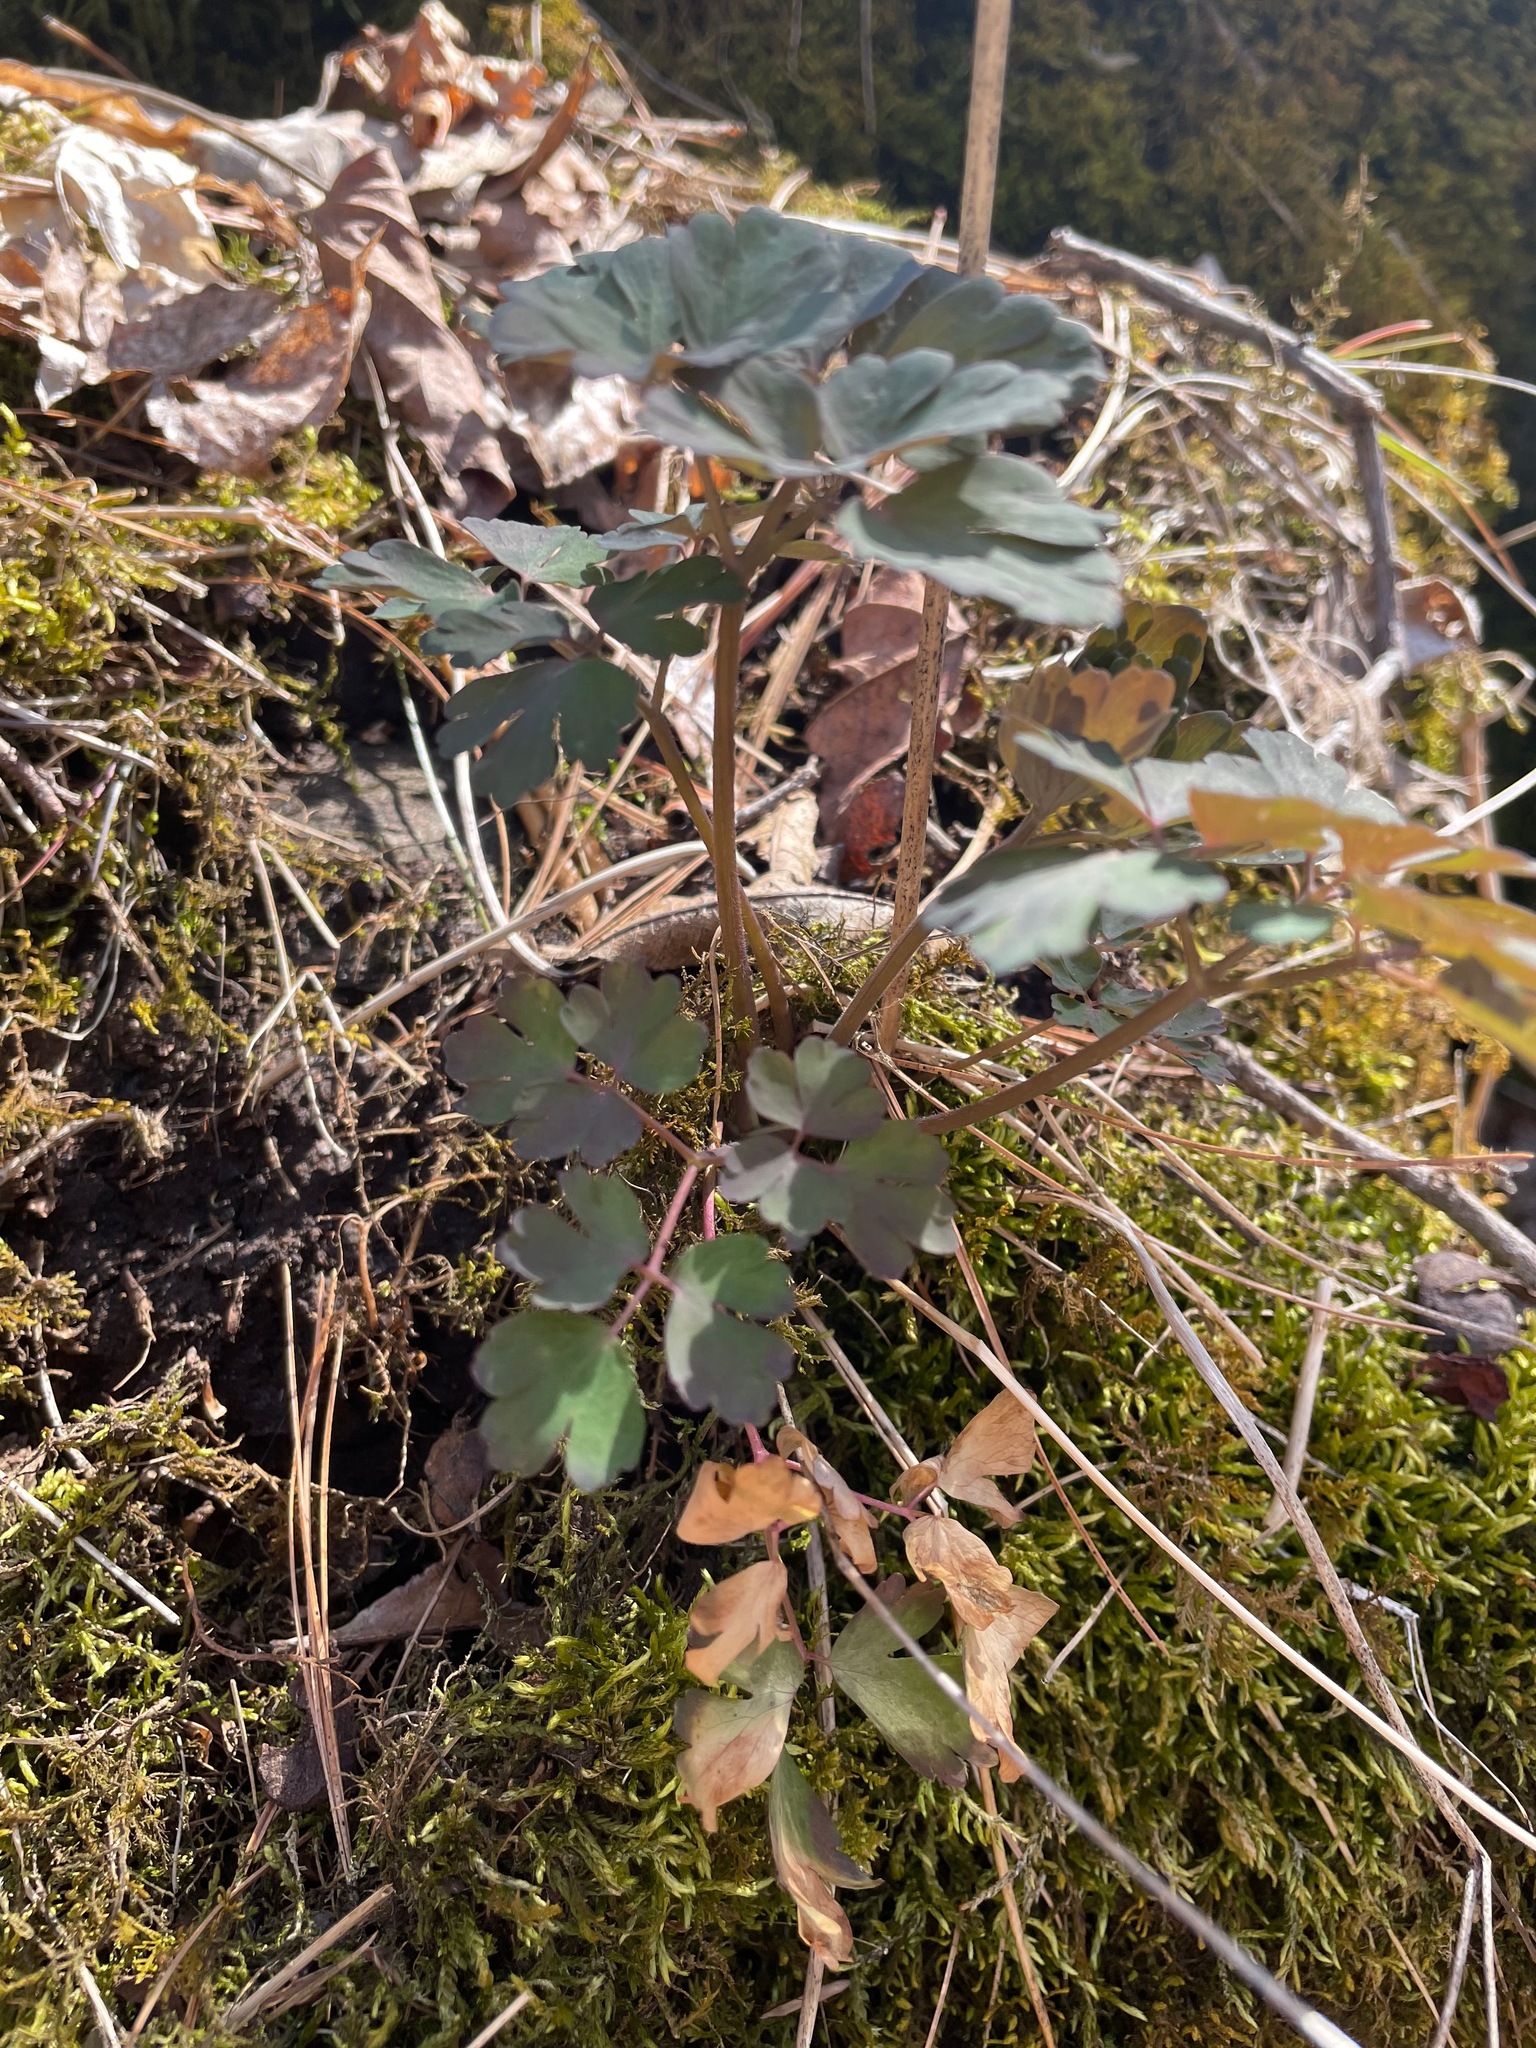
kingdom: Plantae
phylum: Tracheophyta
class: Magnoliopsida
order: Ranunculales
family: Ranunculaceae
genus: Aquilegia
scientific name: Aquilegia canadensis
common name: American columbine
